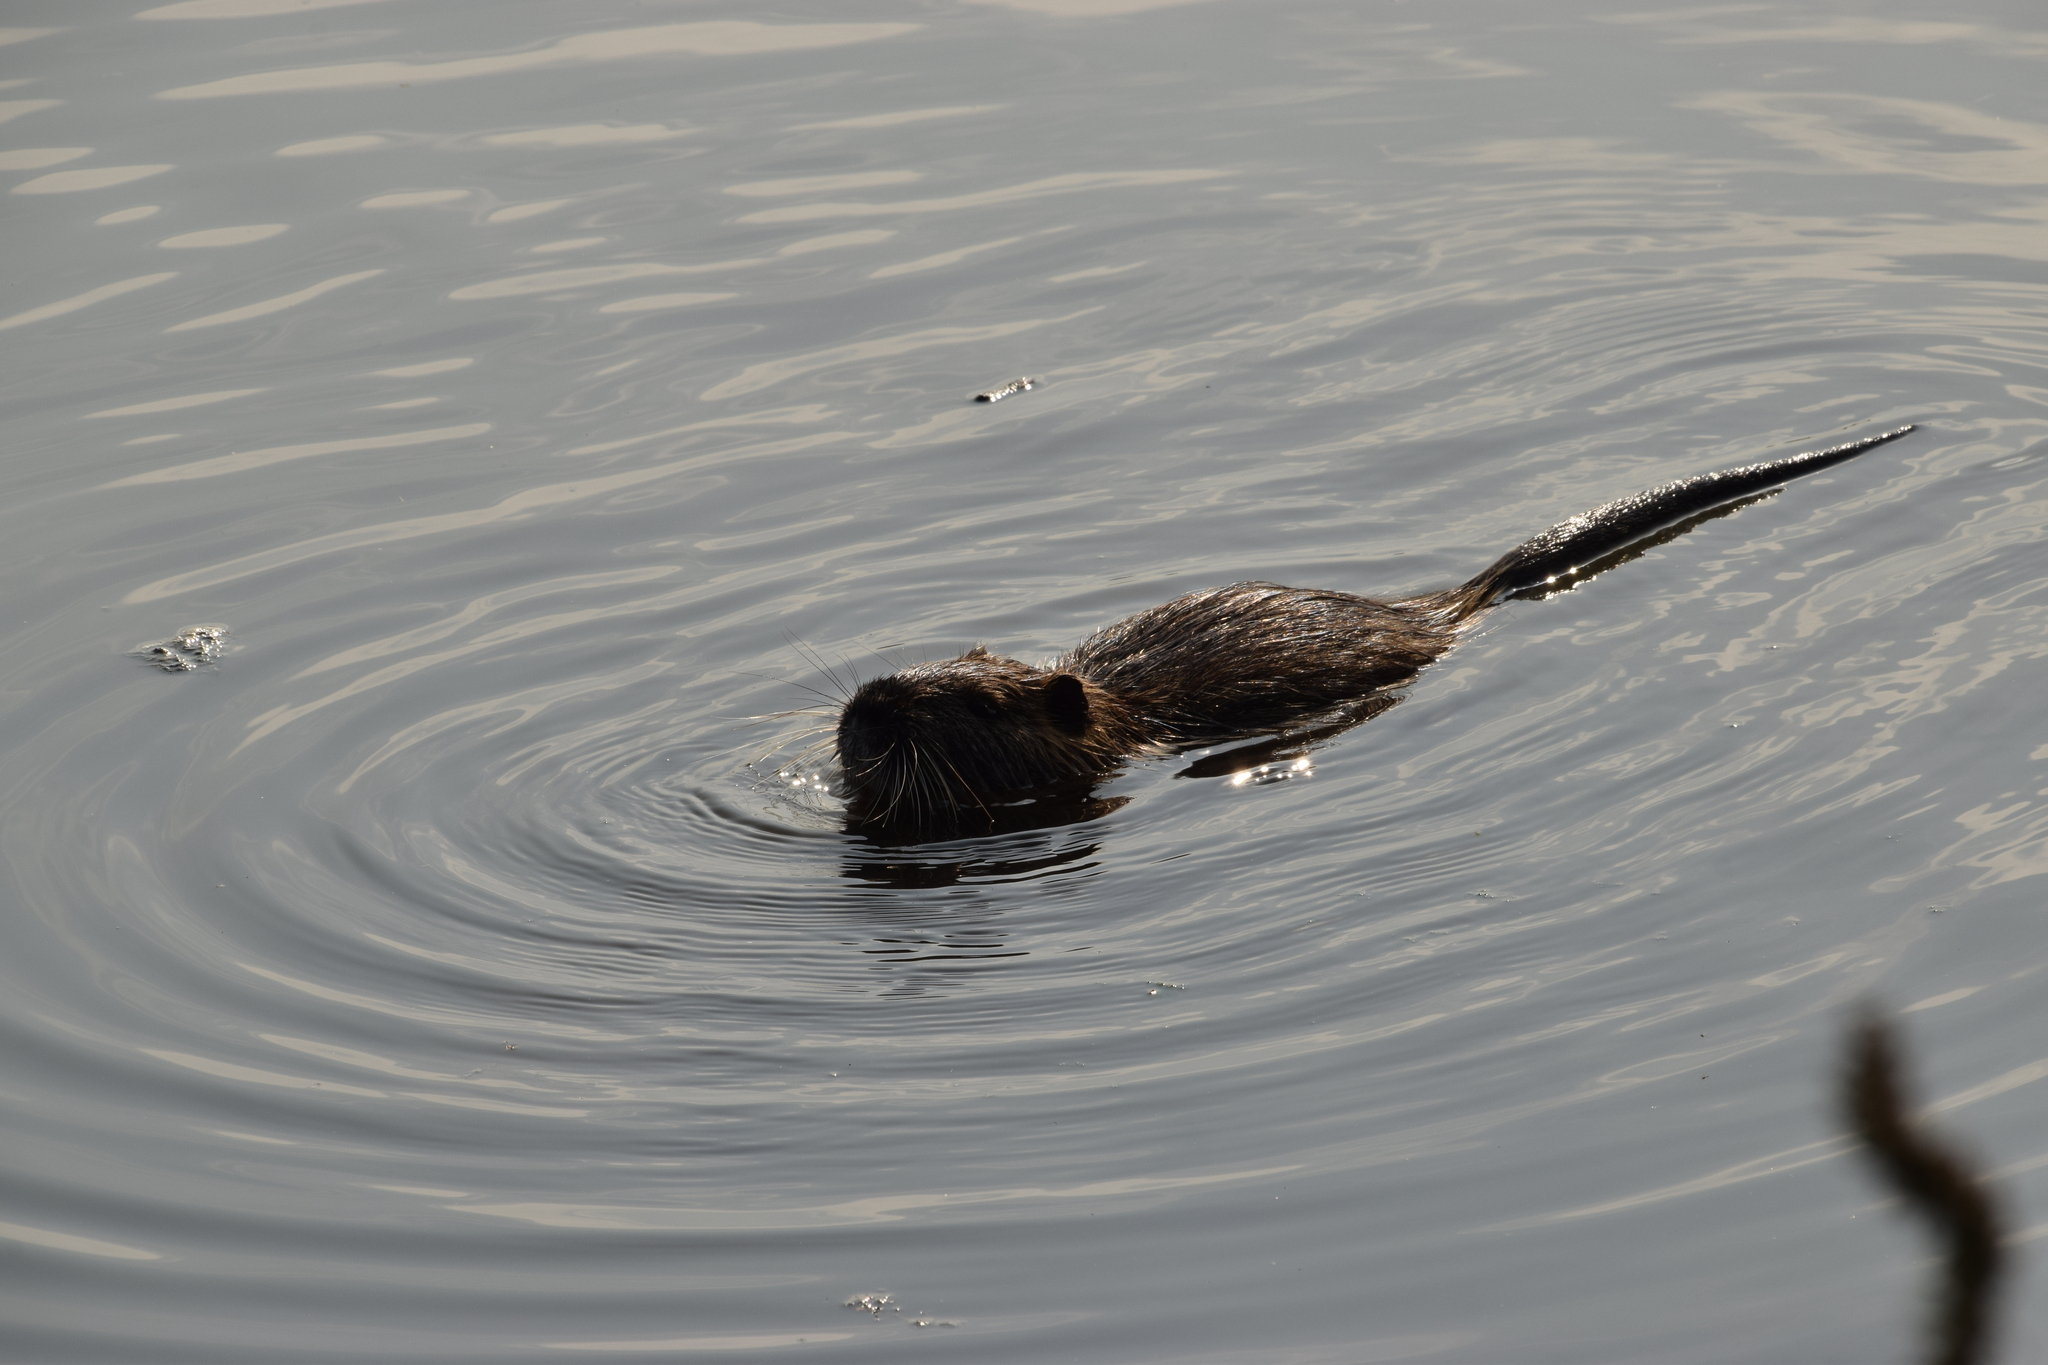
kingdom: Animalia
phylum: Chordata
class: Mammalia
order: Rodentia
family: Myocastoridae
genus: Myocastor
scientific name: Myocastor coypus
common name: Coypu
